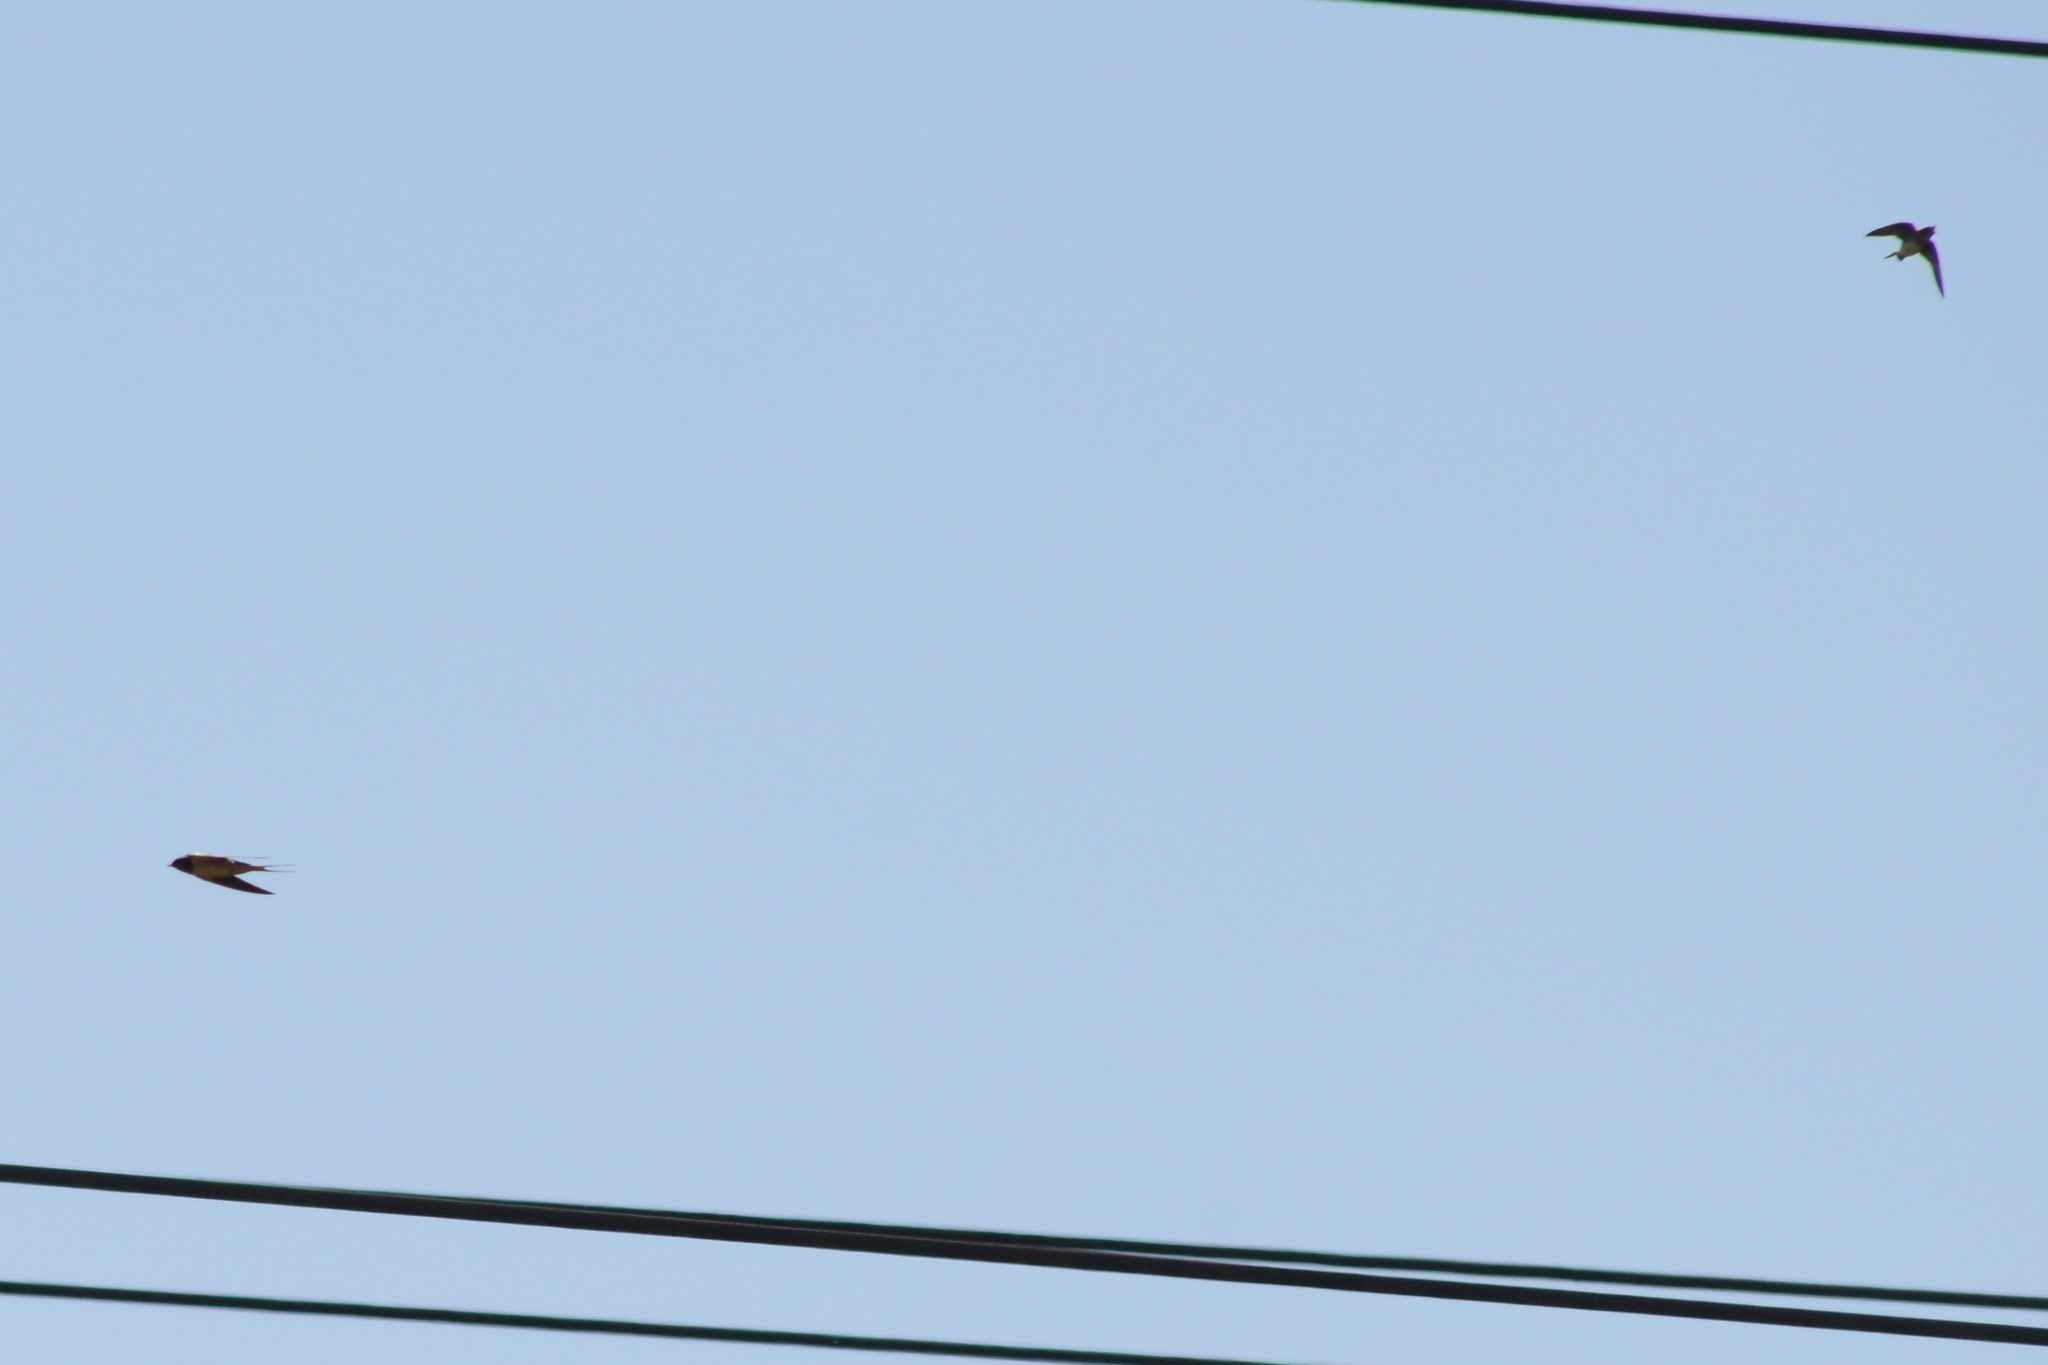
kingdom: Animalia
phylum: Chordata
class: Aves
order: Passeriformes
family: Hirundinidae
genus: Hirundo
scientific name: Hirundo rustica
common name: Barn swallow
